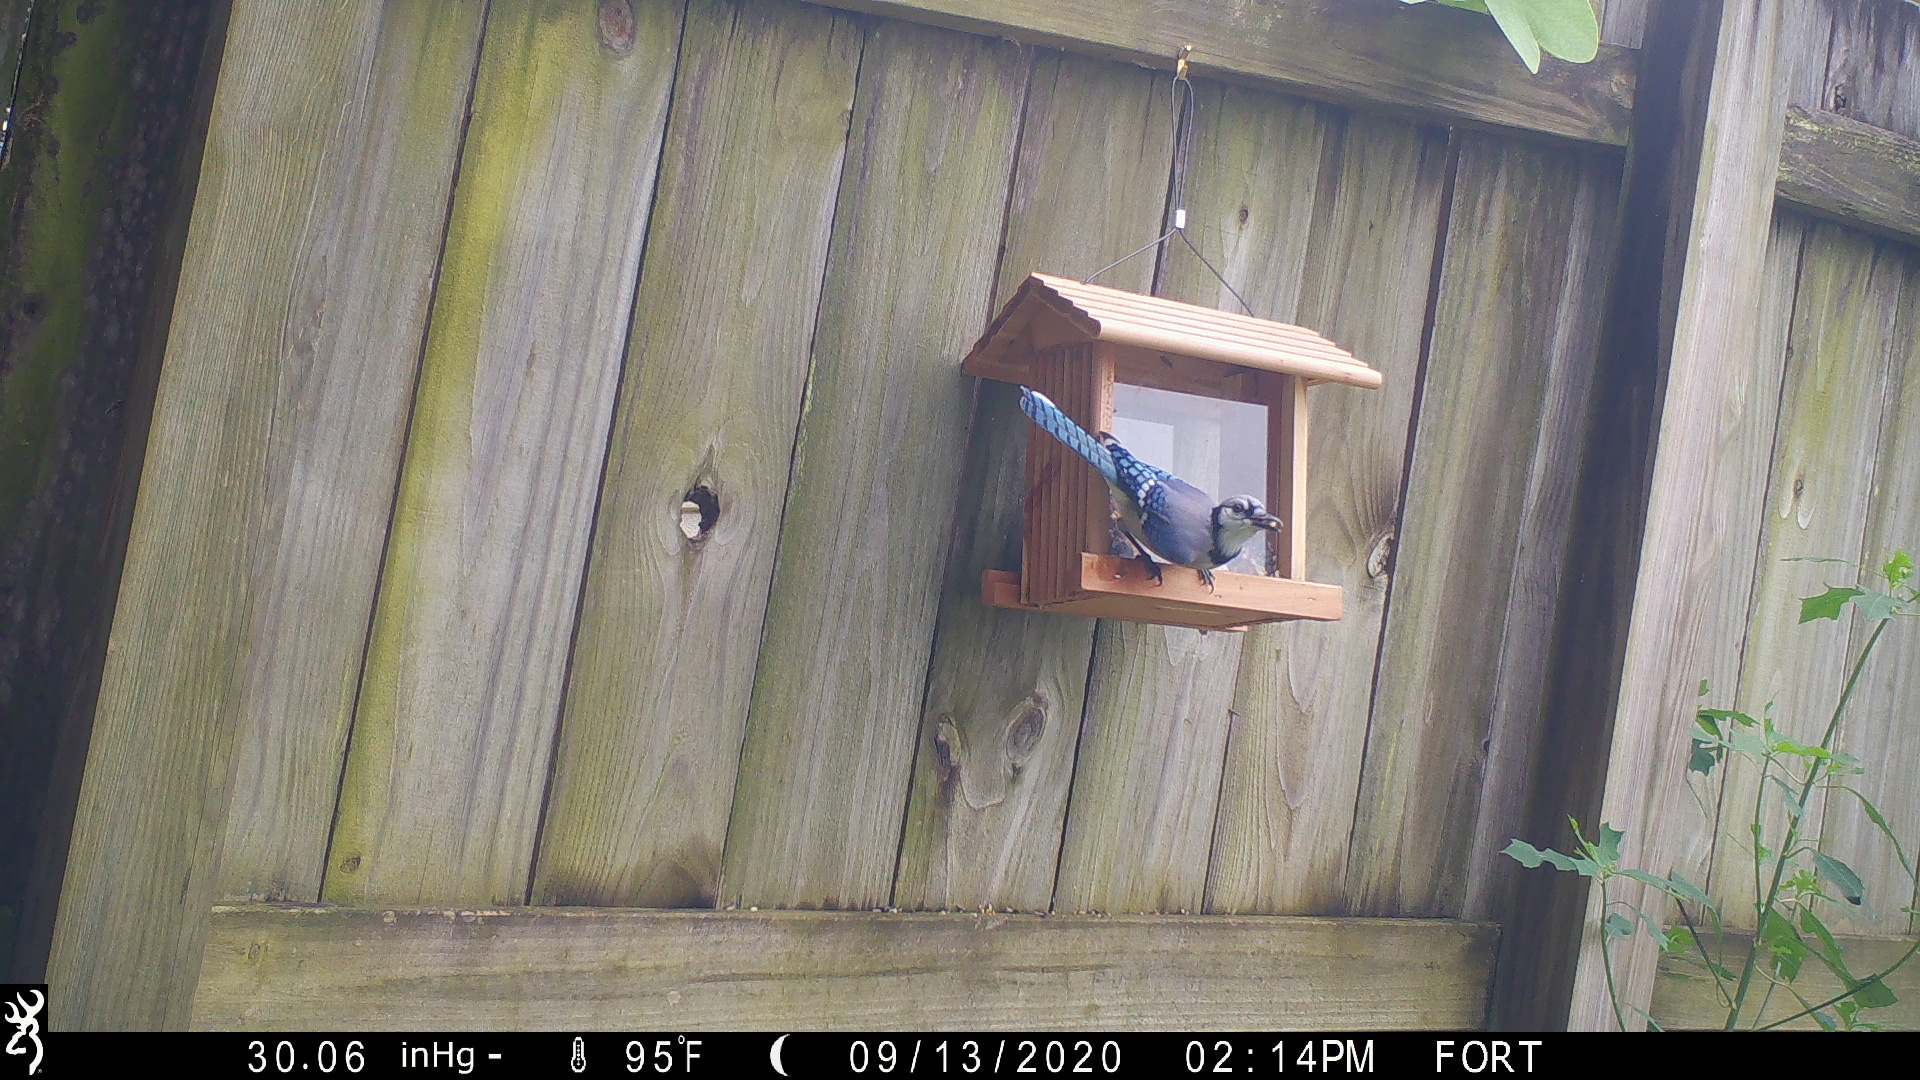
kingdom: Animalia
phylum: Chordata
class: Aves
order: Passeriformes
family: Corvidae
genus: Cyanocitta
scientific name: Cyanocitta cristata
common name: Blue jay
